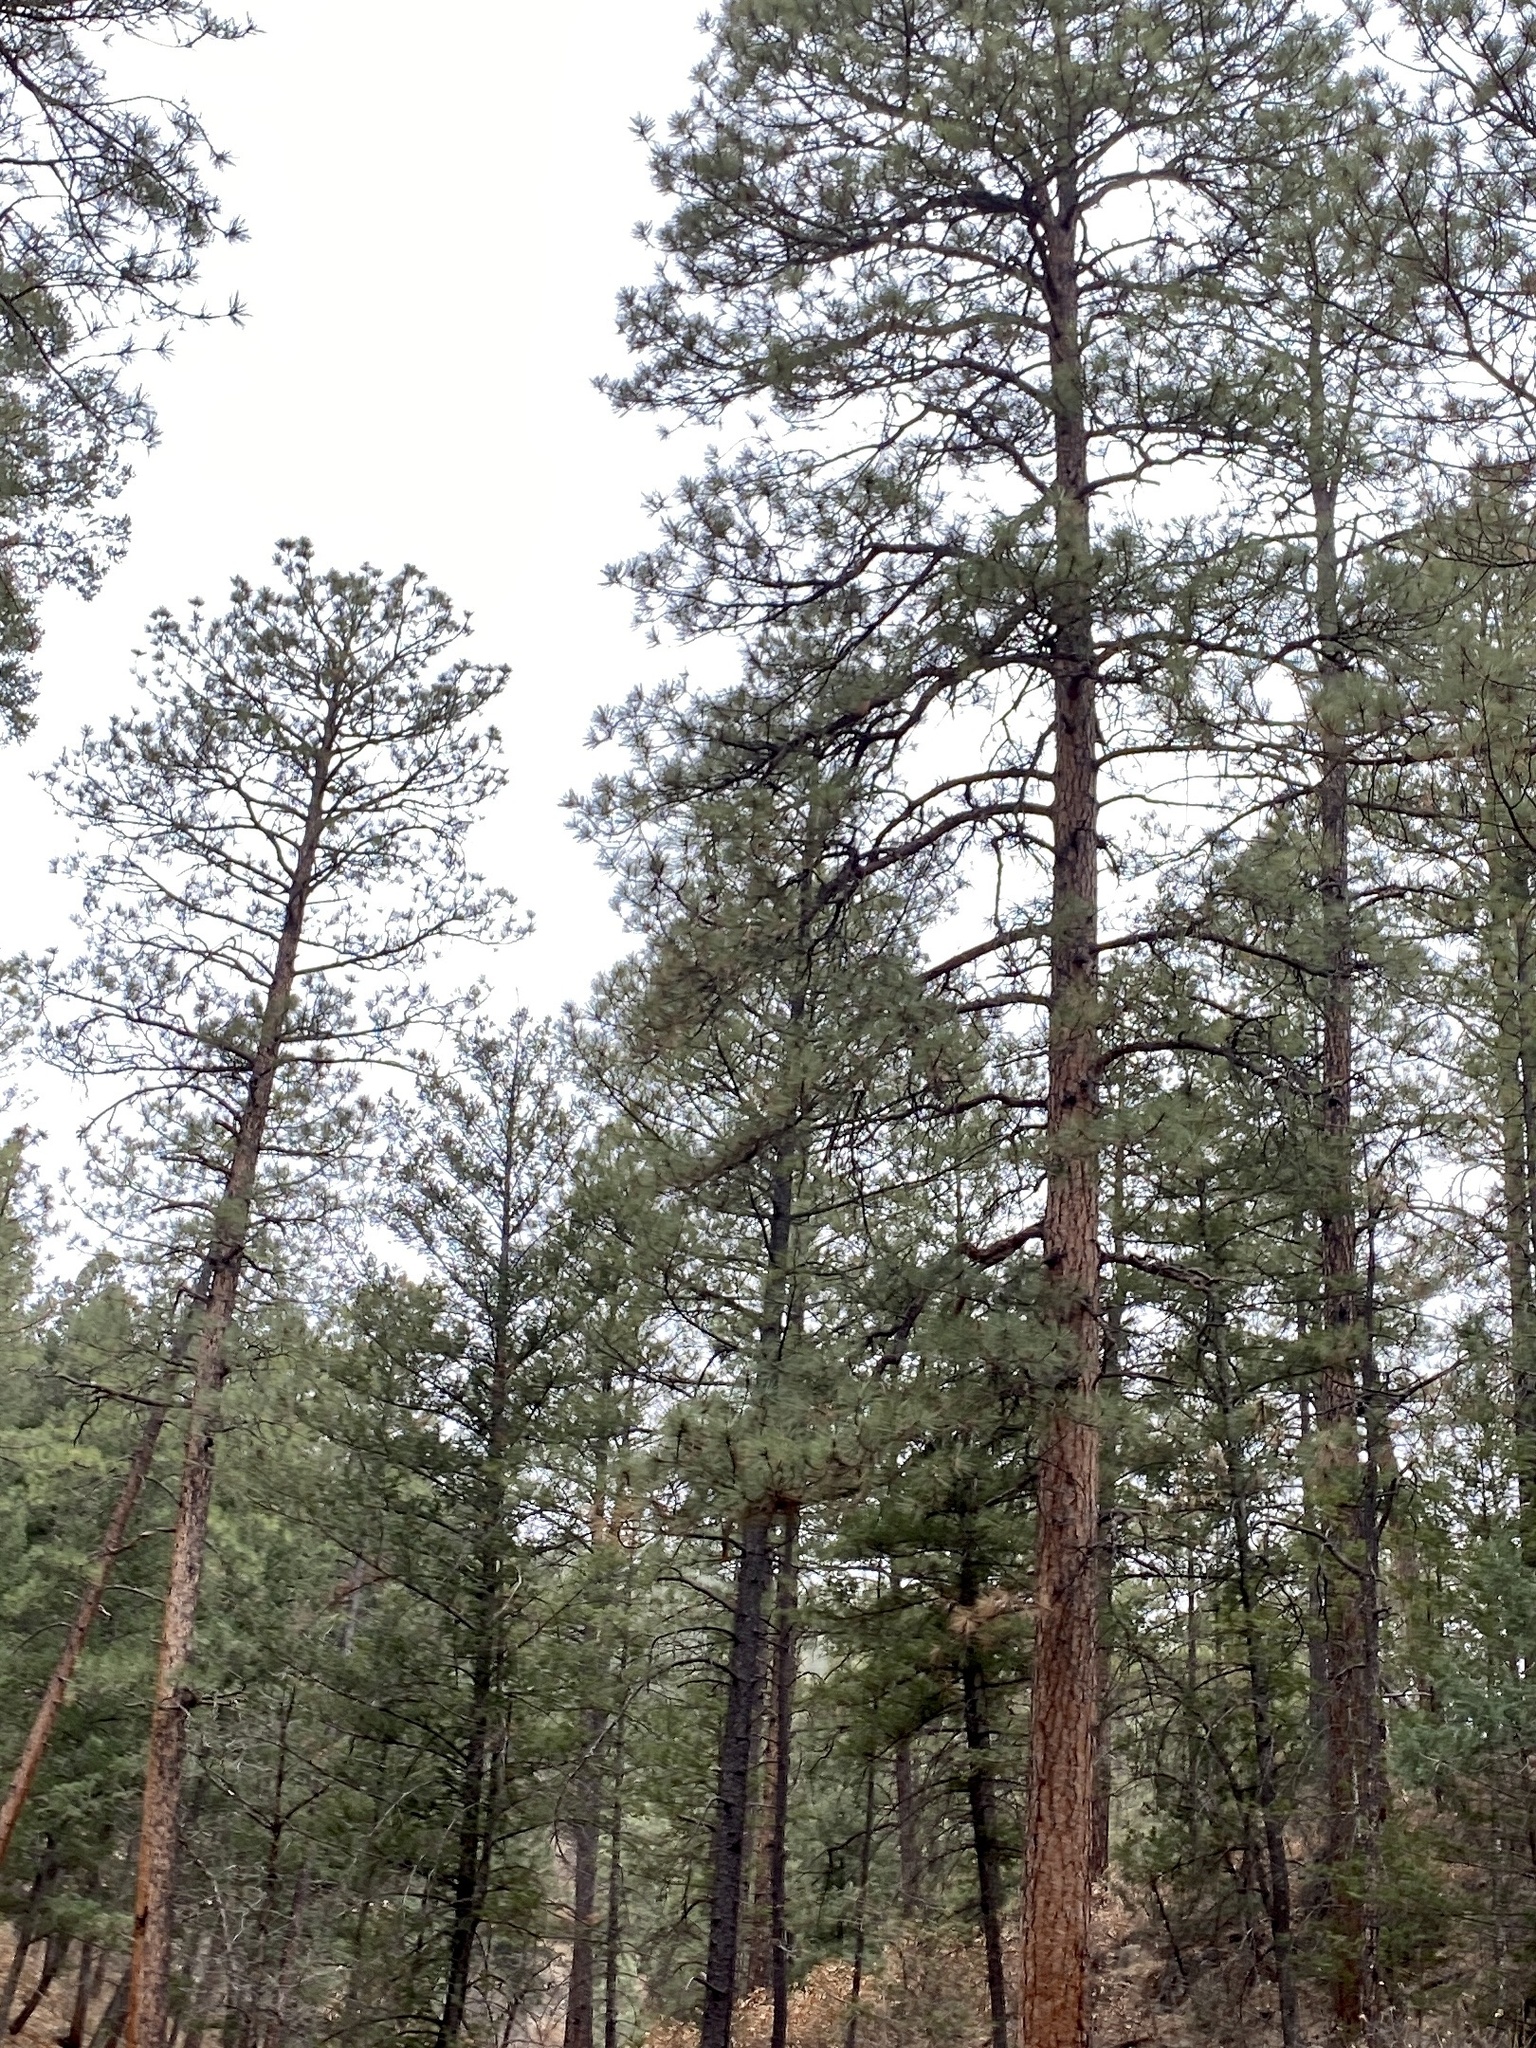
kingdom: Plantae
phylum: Tracheophyta
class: Pinopsida
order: Pinales
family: Pinaceae
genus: Pinus
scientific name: Pinus ponderosa
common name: Western yellow-pine
